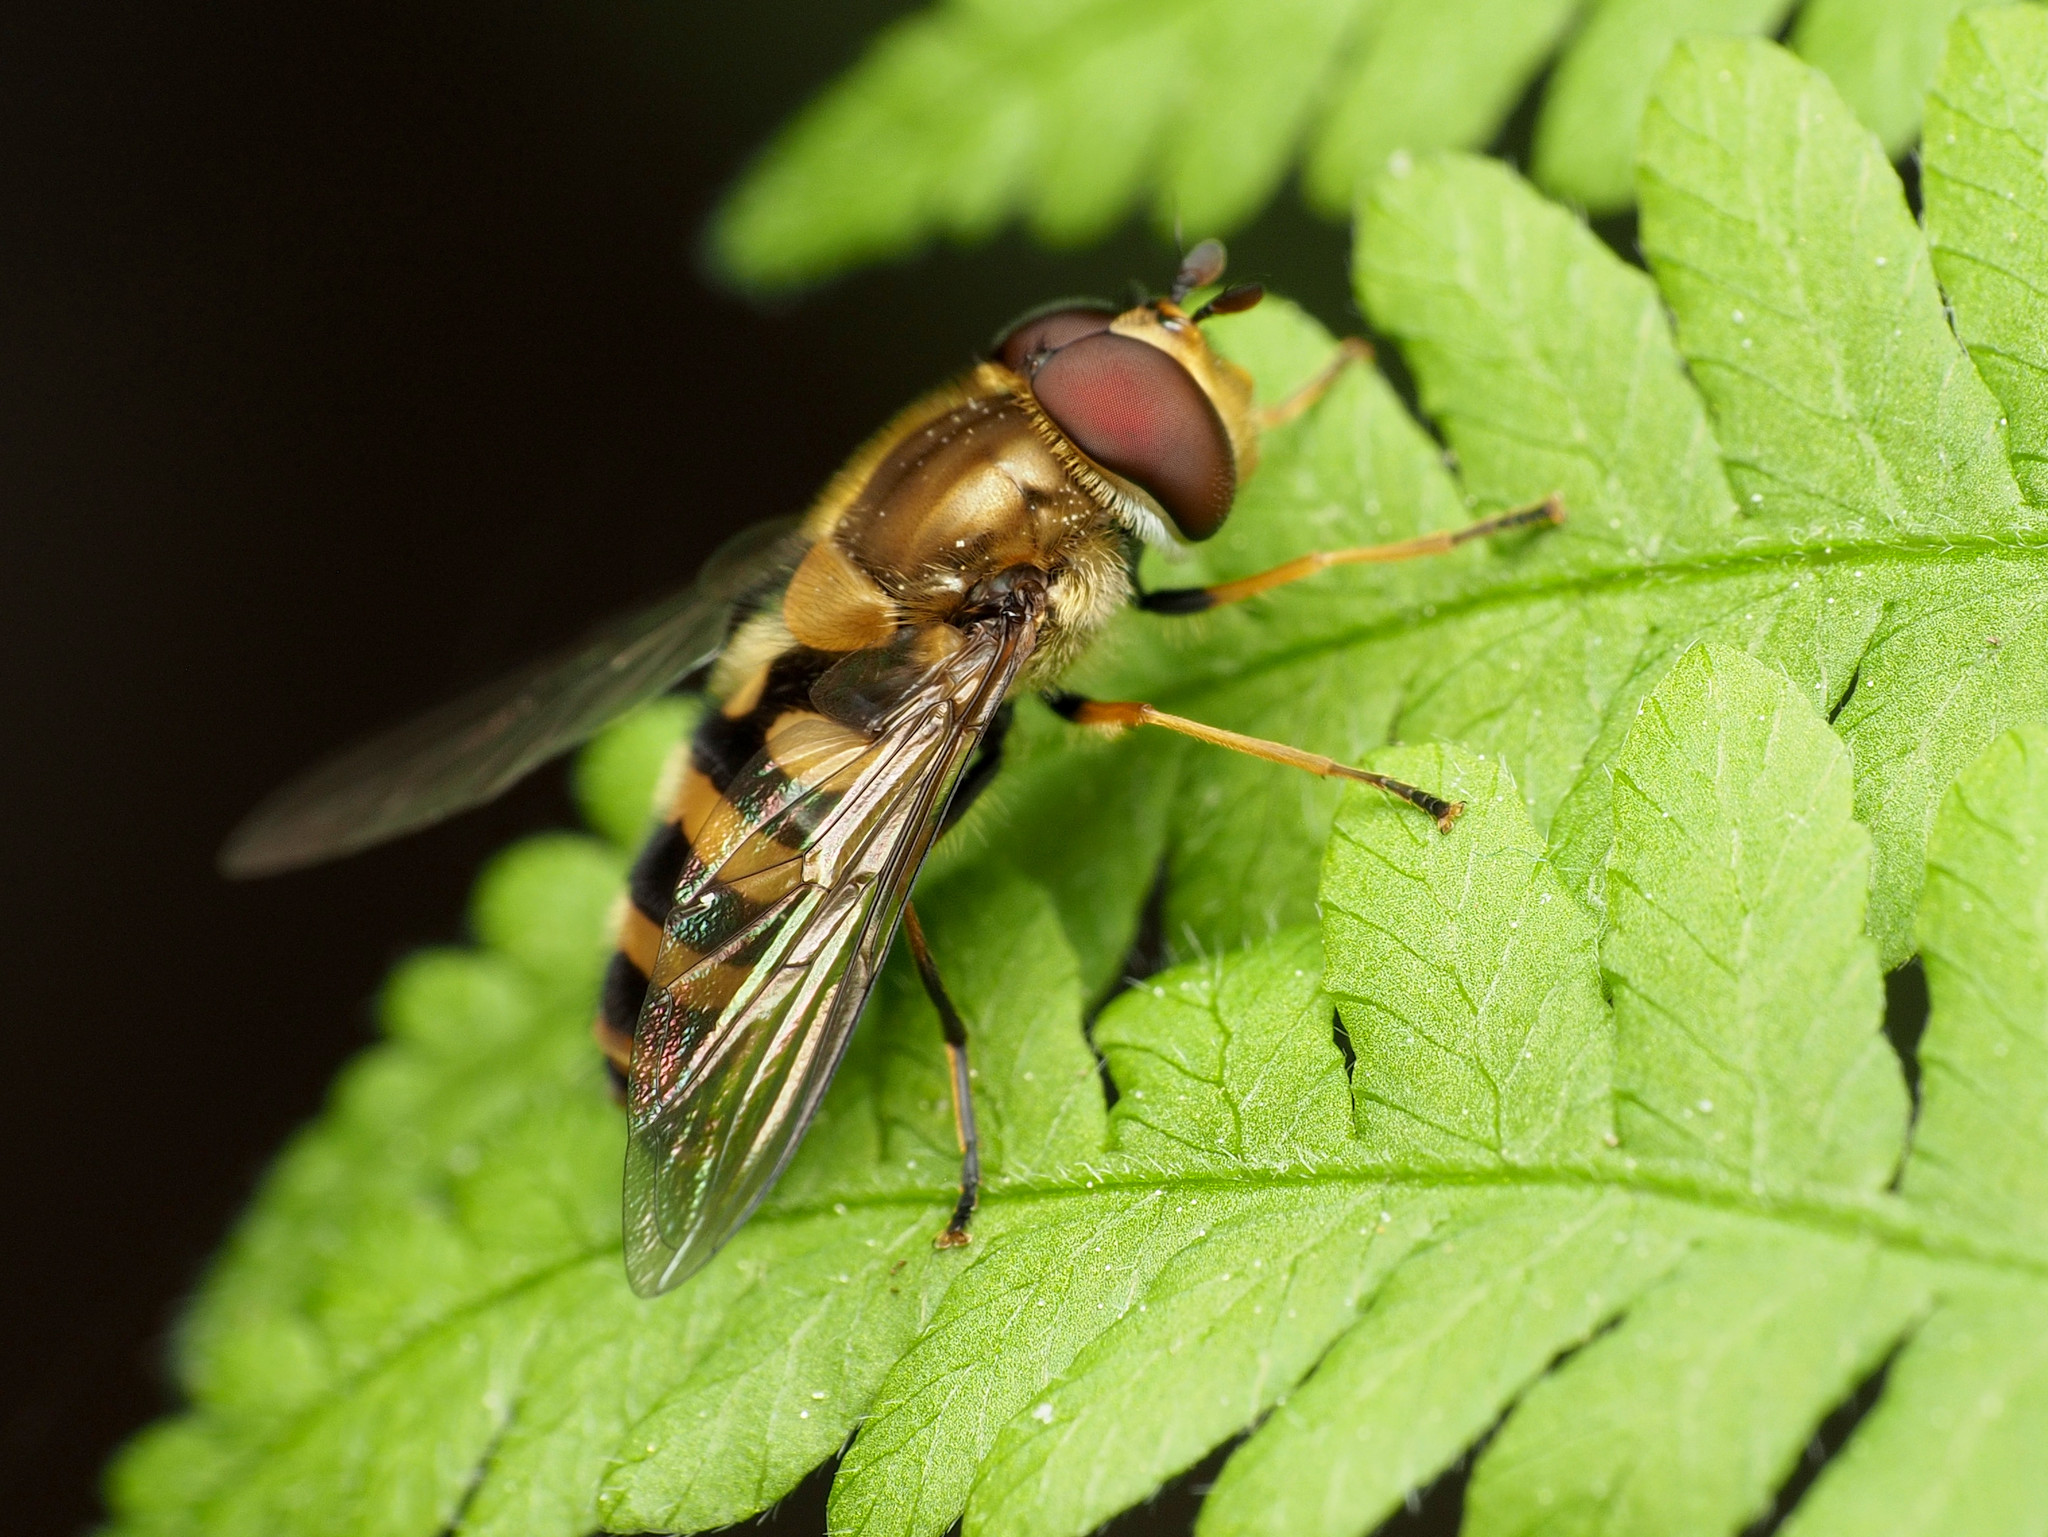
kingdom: Animalia
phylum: Arthropoda
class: Insecta
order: Diptera
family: Syrphidae
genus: Syrphus
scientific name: Syrphus torvus
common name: Hairy-eyed flower fly
